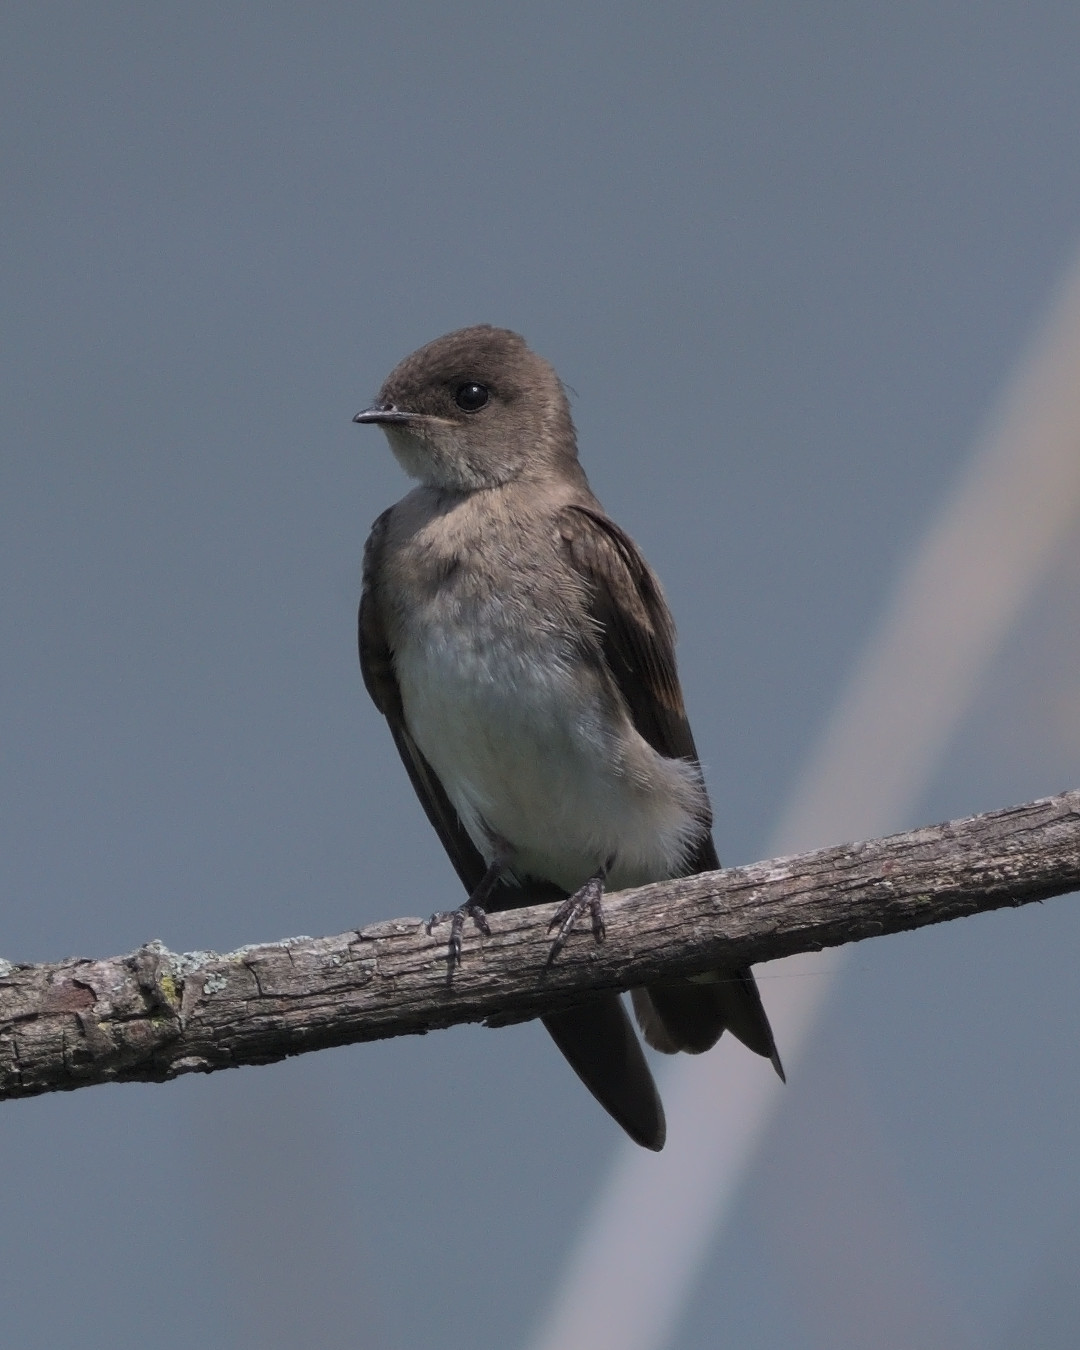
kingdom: Animalia
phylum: Chordata
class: Aves
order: Passeriformes
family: Hirundinidae
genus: Stelgidopteryx
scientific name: Stelgidopteryx serripennis
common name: Northern rough-winged swallow
